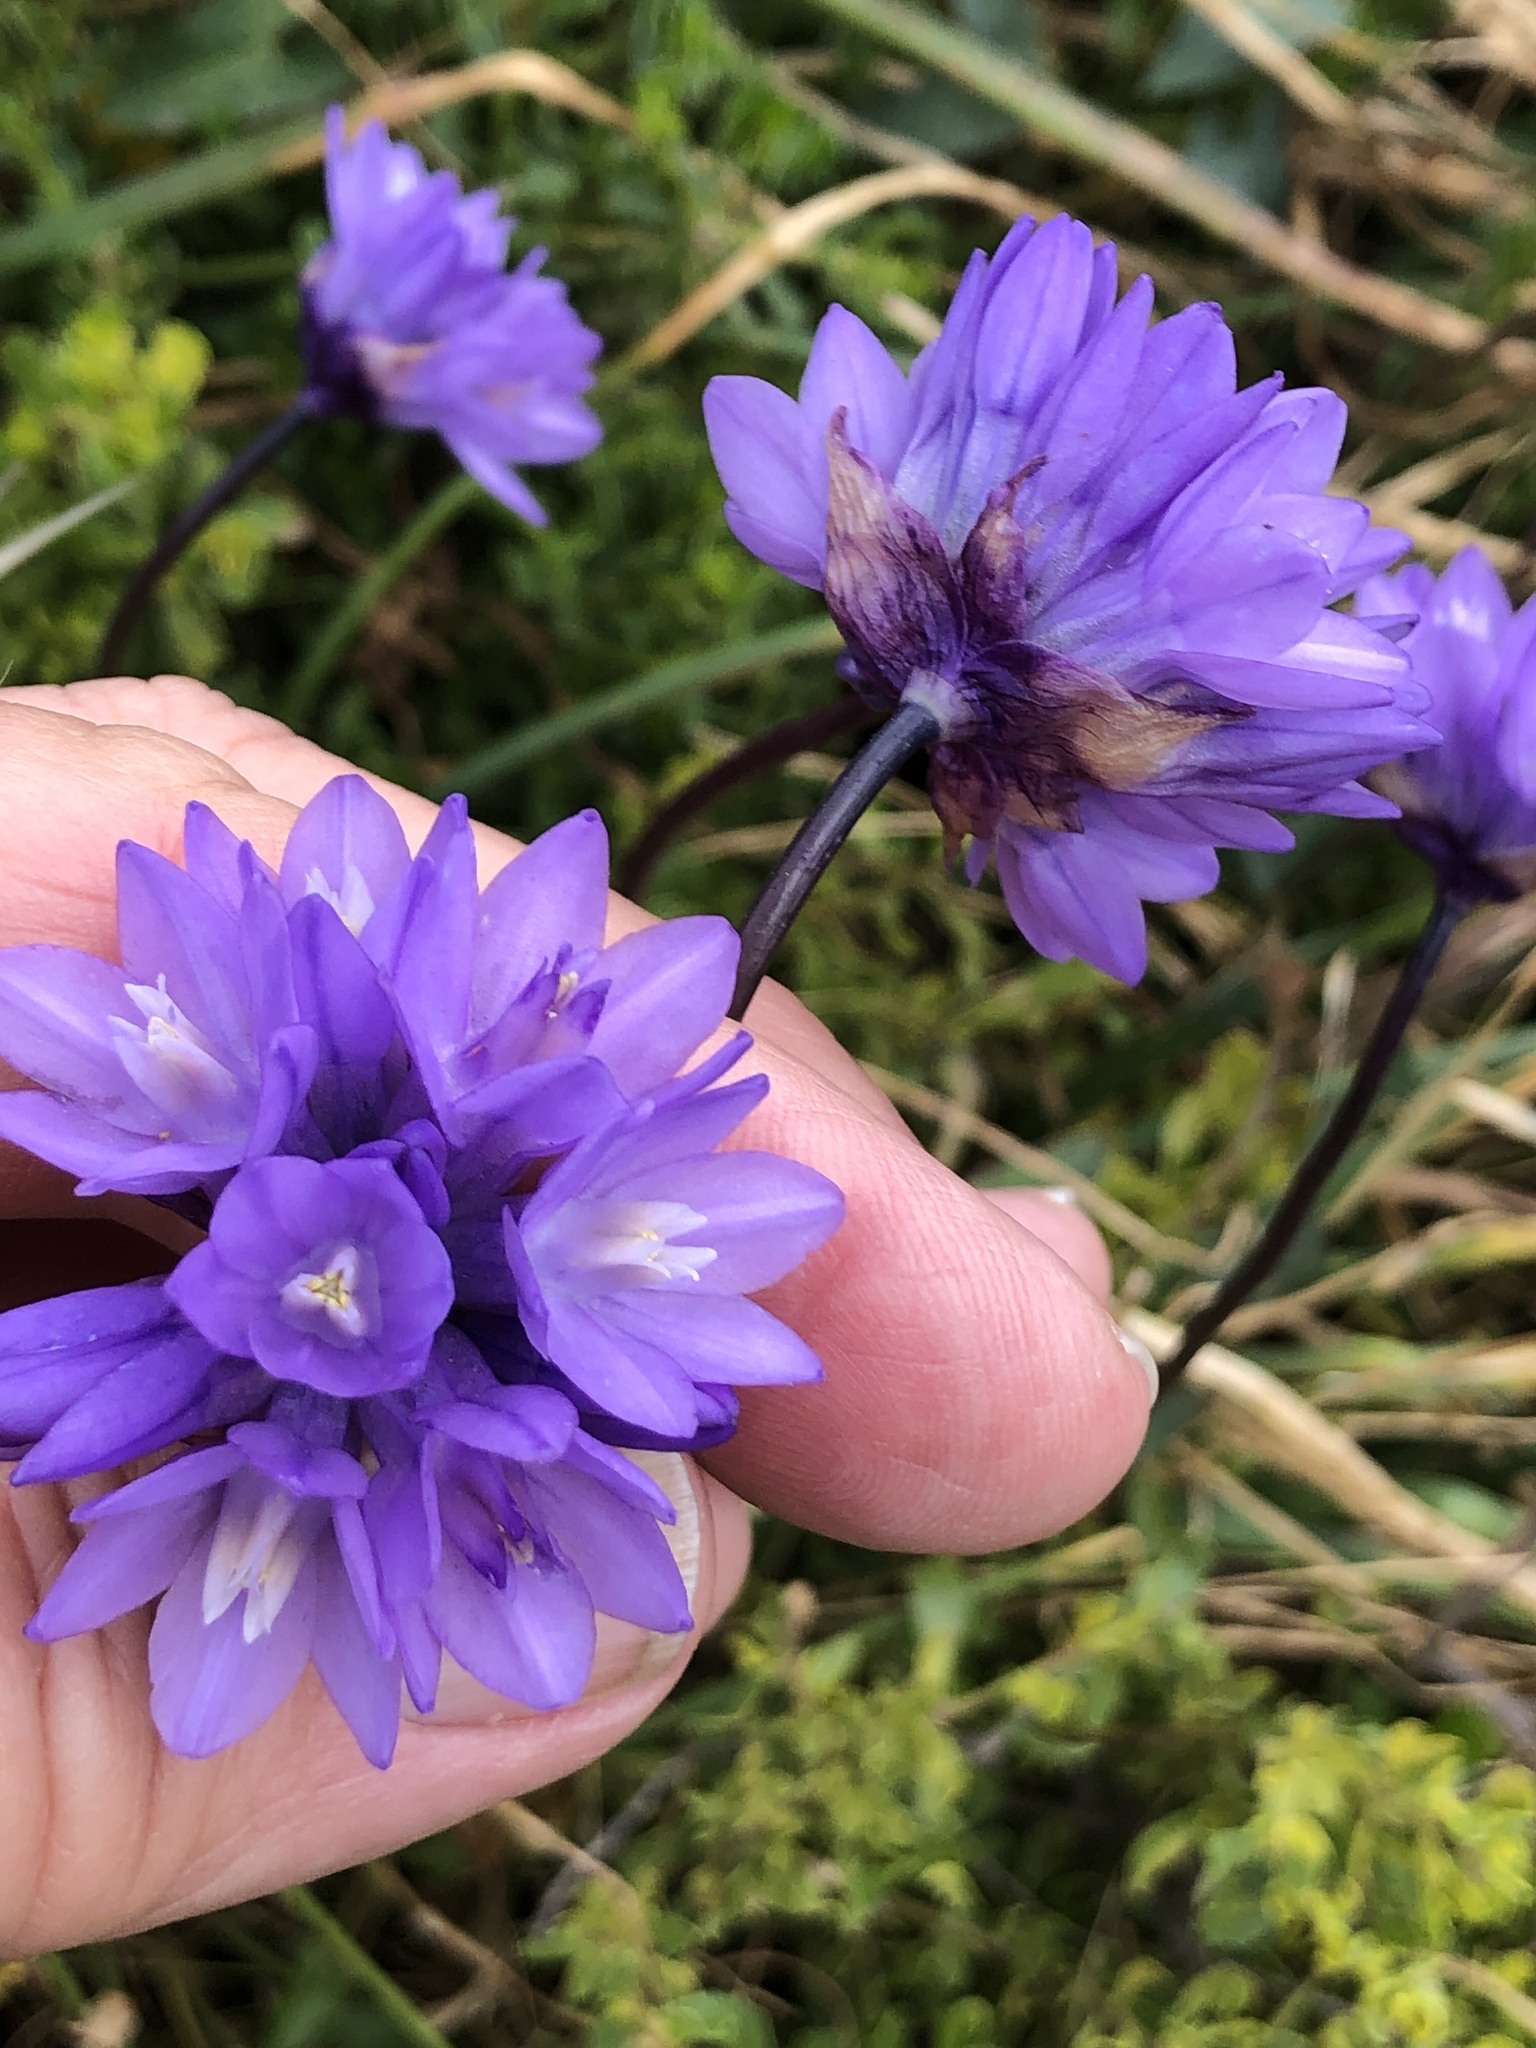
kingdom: Plantae
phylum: Tracheophyta
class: Liliopsida
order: Asparagales
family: Asparagaceae
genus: Dipterostemon
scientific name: Dipterostemon capitatus
